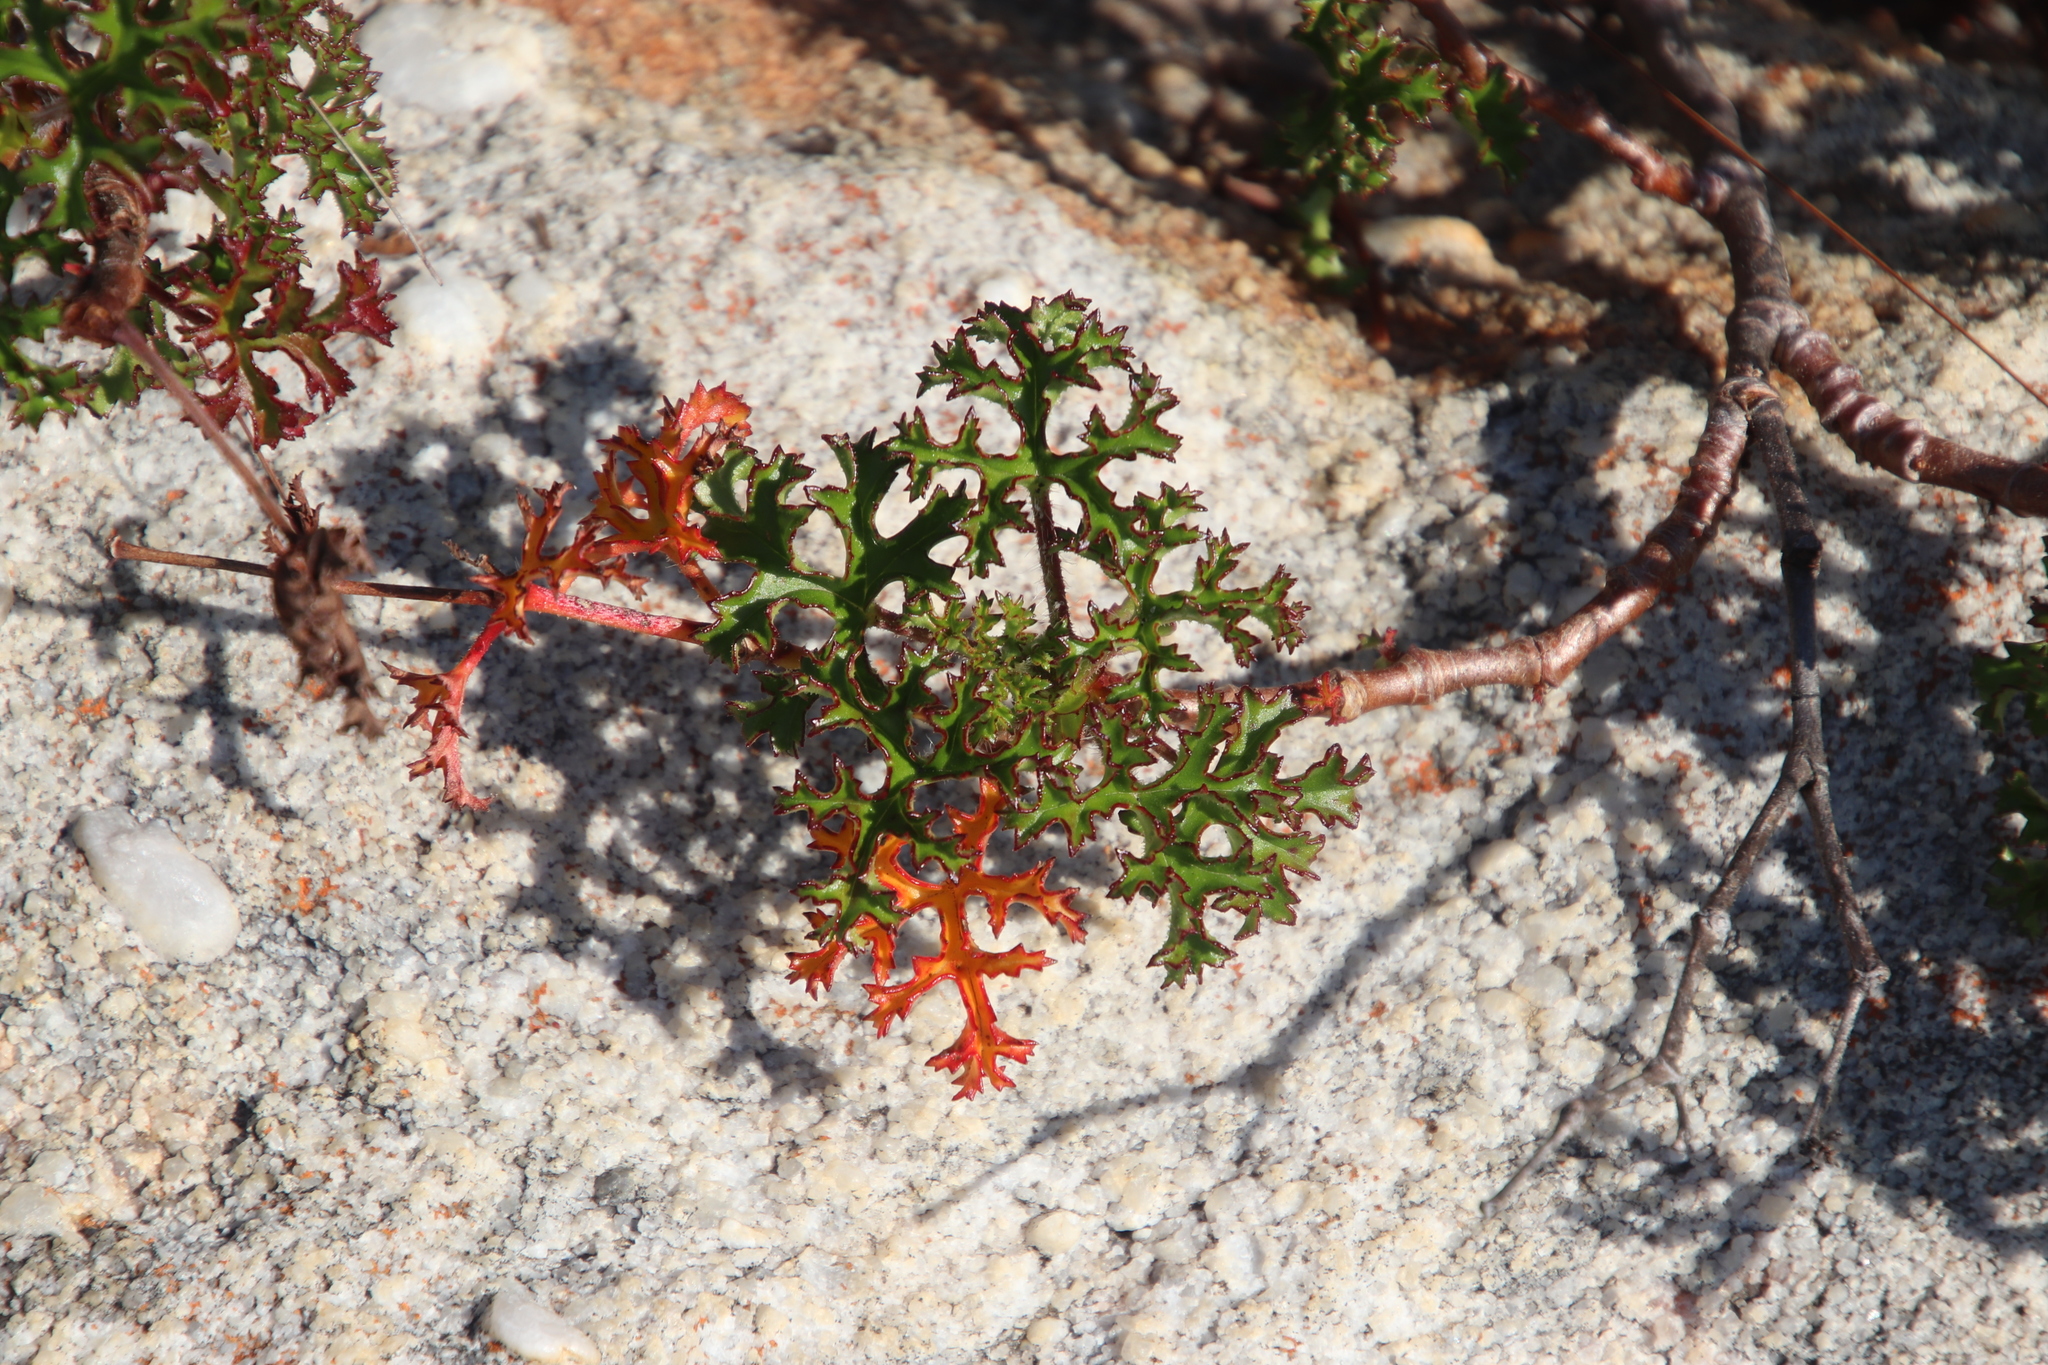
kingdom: Plantae
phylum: Tracheophyta
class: Magnoliopsida
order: Geraniales
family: Geraniaceae
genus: Pelargonium
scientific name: Pelargonium scabroide
